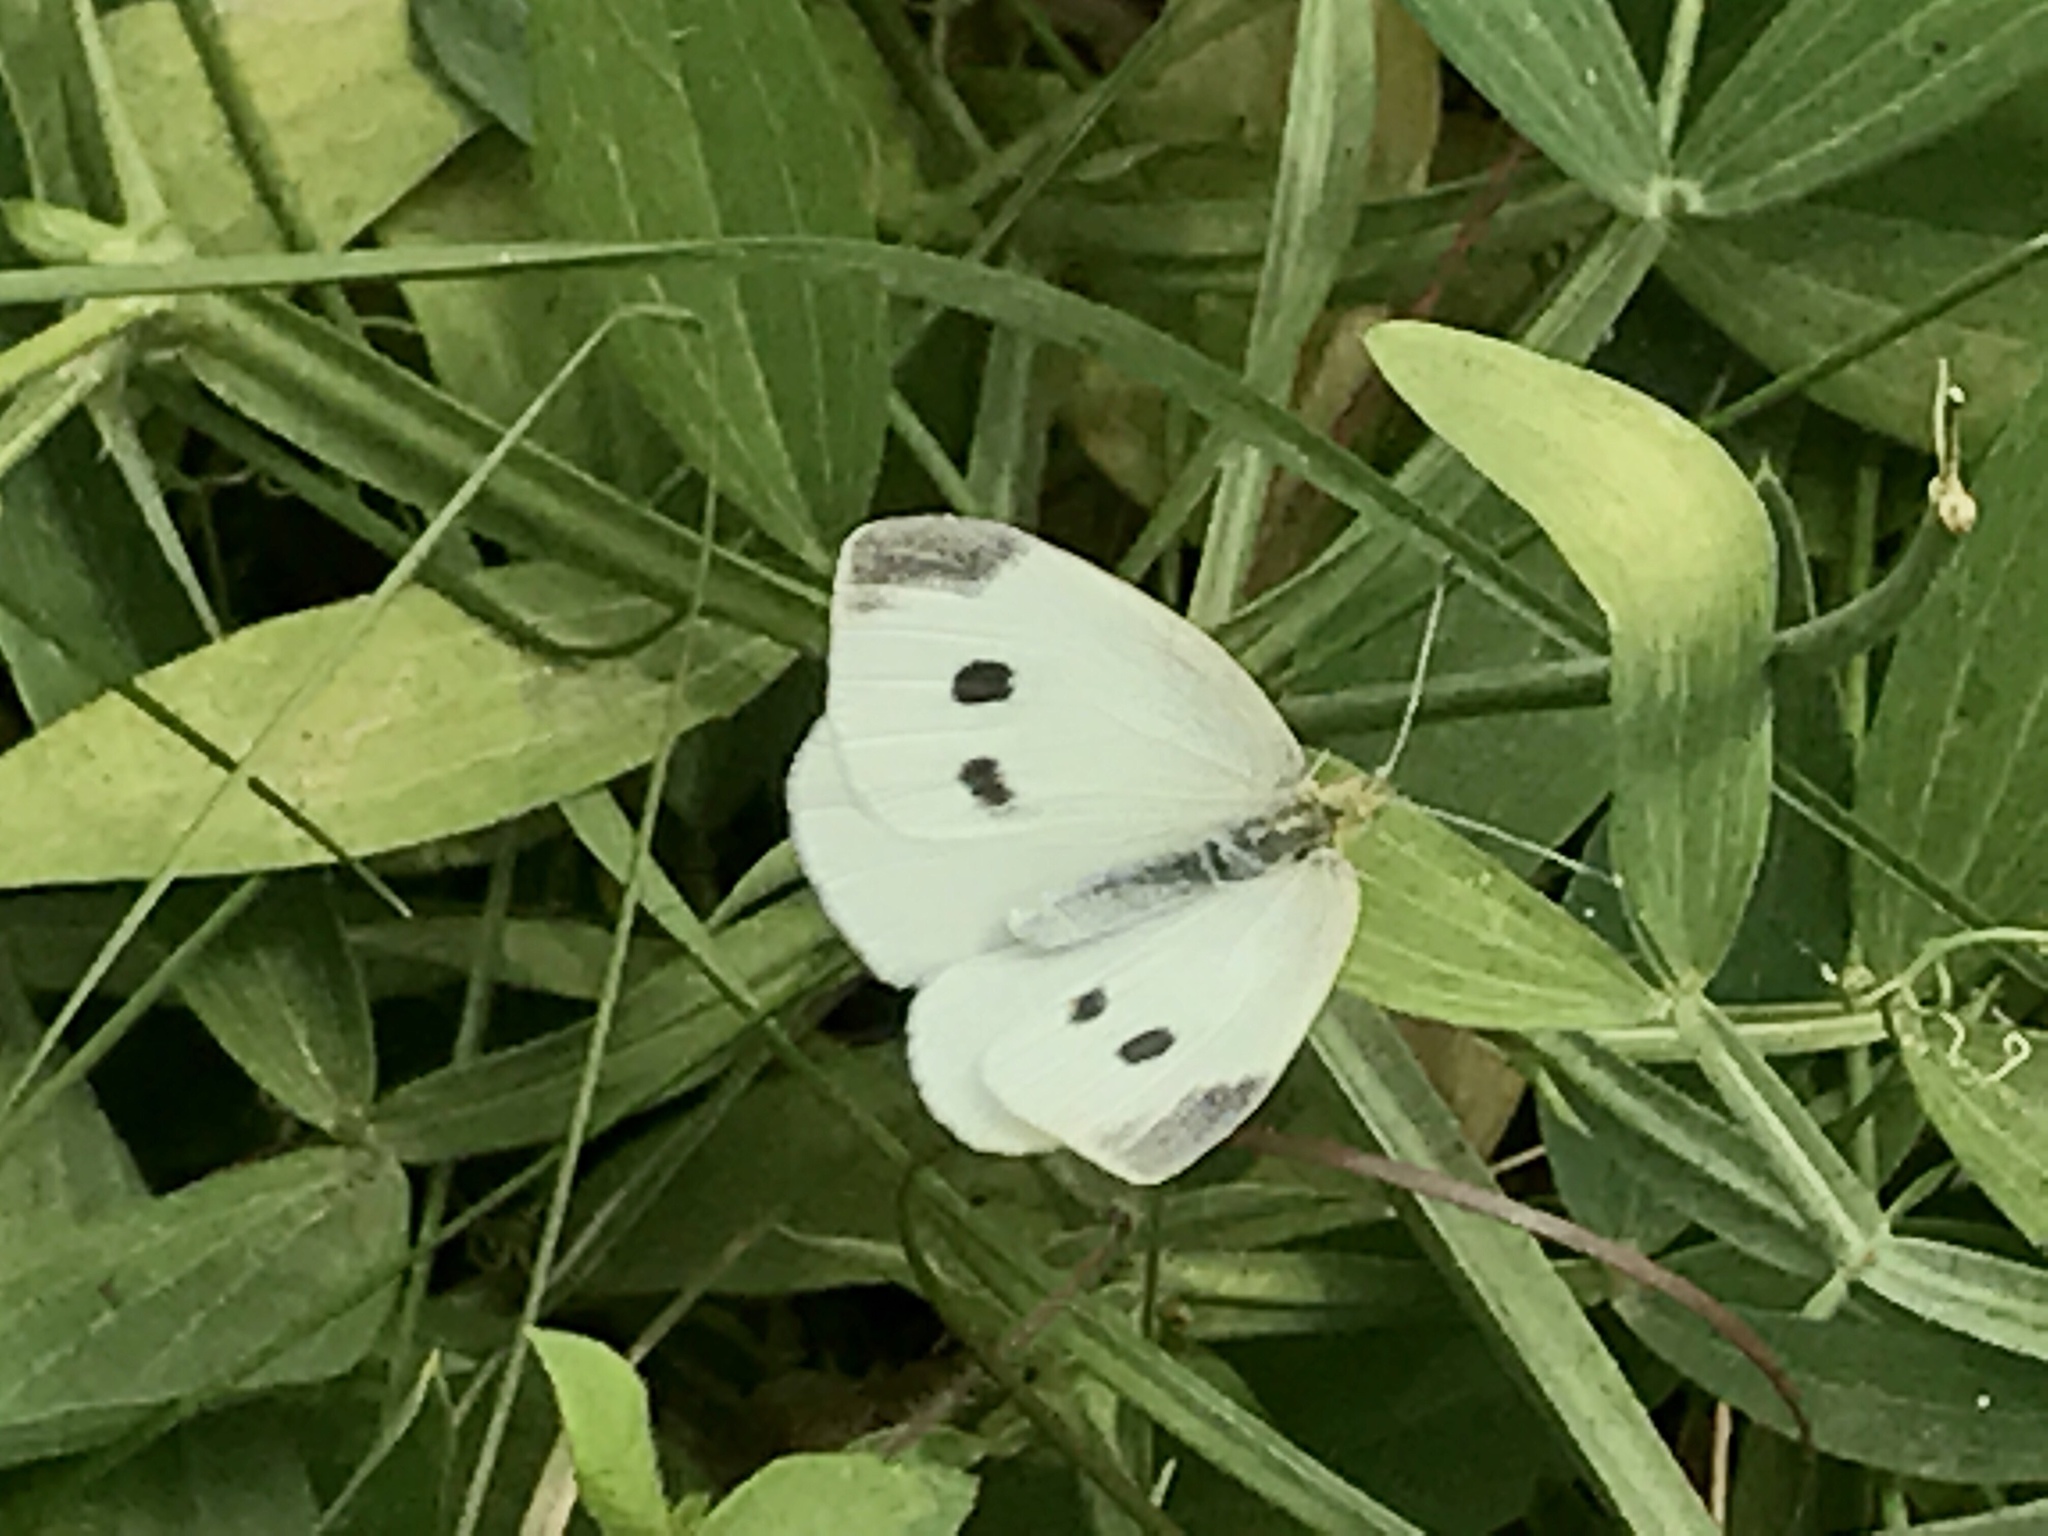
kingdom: Animalia
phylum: Arthropoda
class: Insecta
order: Lepidoptera
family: Pieridae
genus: Pieris
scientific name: Pieris rapae
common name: Small white
